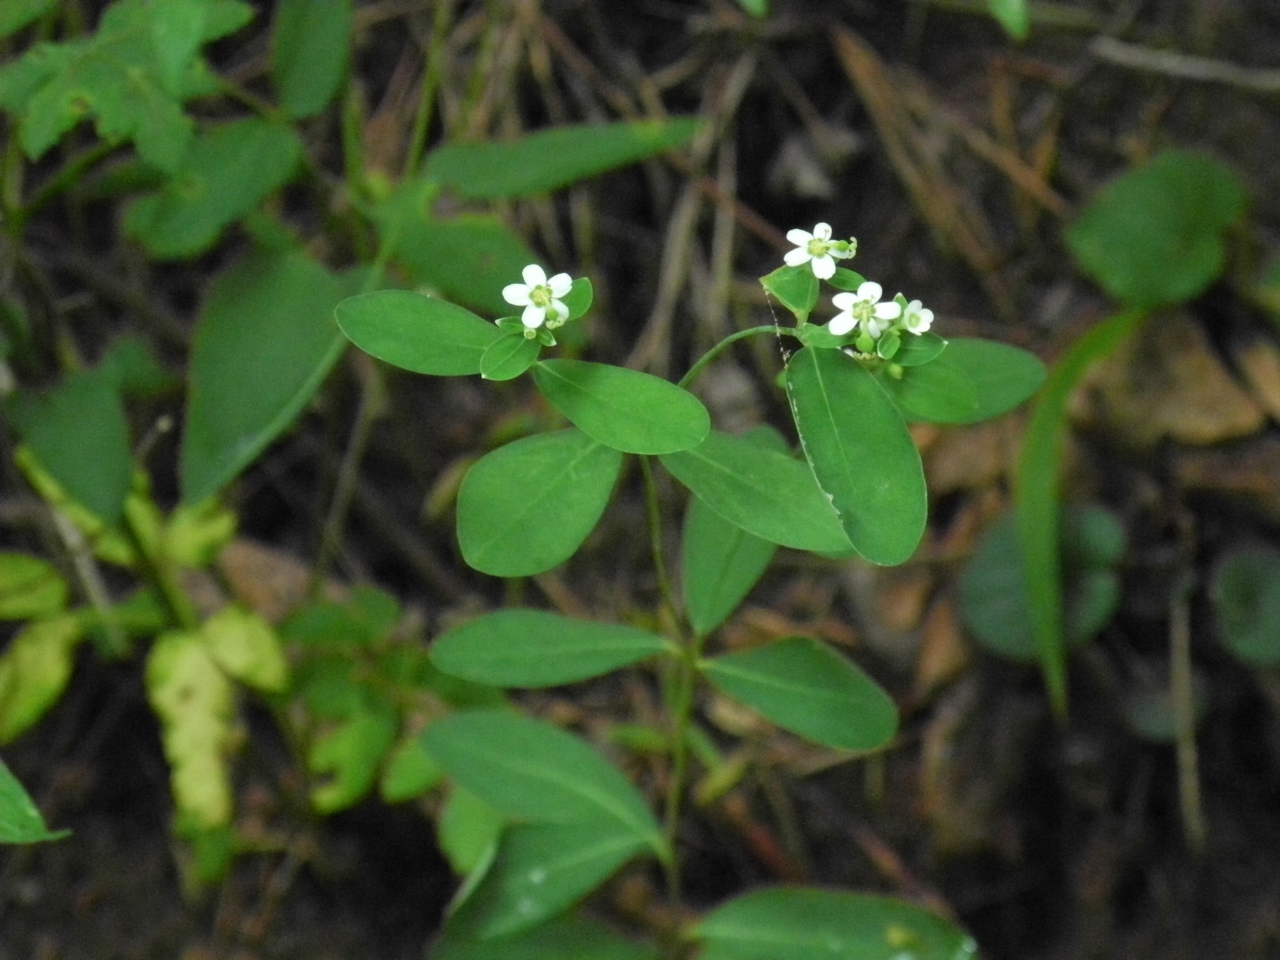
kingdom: Plantae
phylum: Tracheophyta
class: Magnoliopsida
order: Malpighiales
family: Euphorbiaceae
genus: Euphorbia
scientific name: Euphorbia corollata
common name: Flowering spurge
